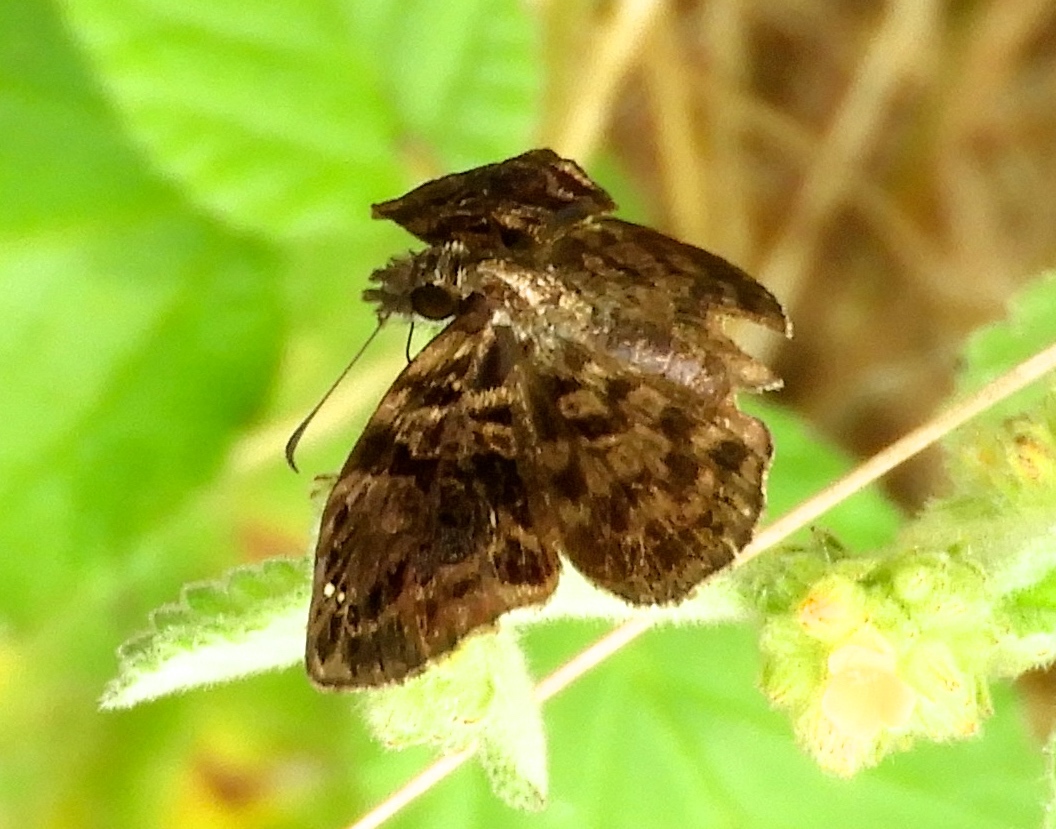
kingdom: Animalia
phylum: Arthropoda
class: Insecta
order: Lepidoptera
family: Hesperiidae
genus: Pyrginae
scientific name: Pyrginae
